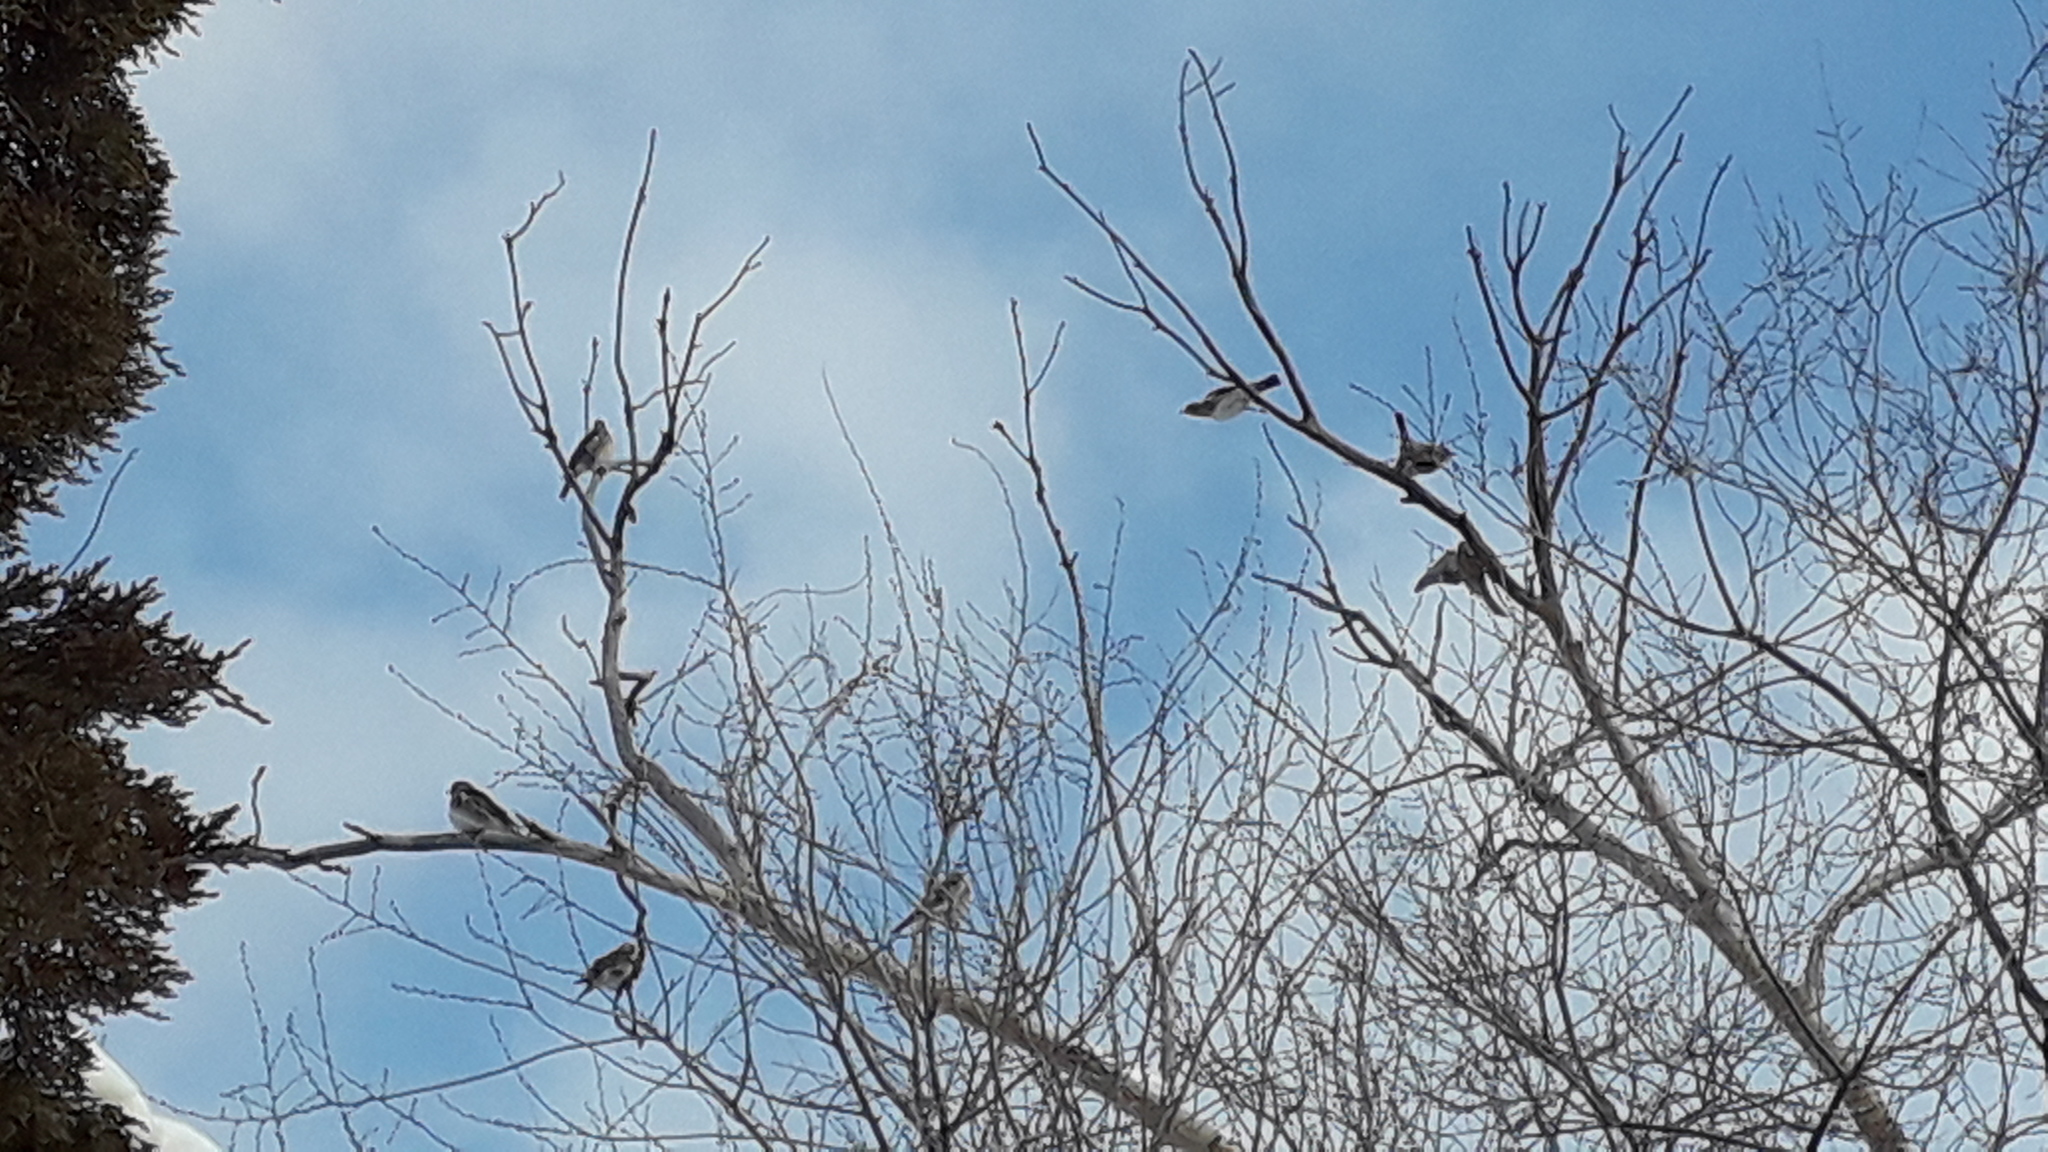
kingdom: Animalia
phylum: Chordata
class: Aves
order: Passeriformes
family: Turdidae
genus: Turdus
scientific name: Turdus pilaris
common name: Fieldfare
